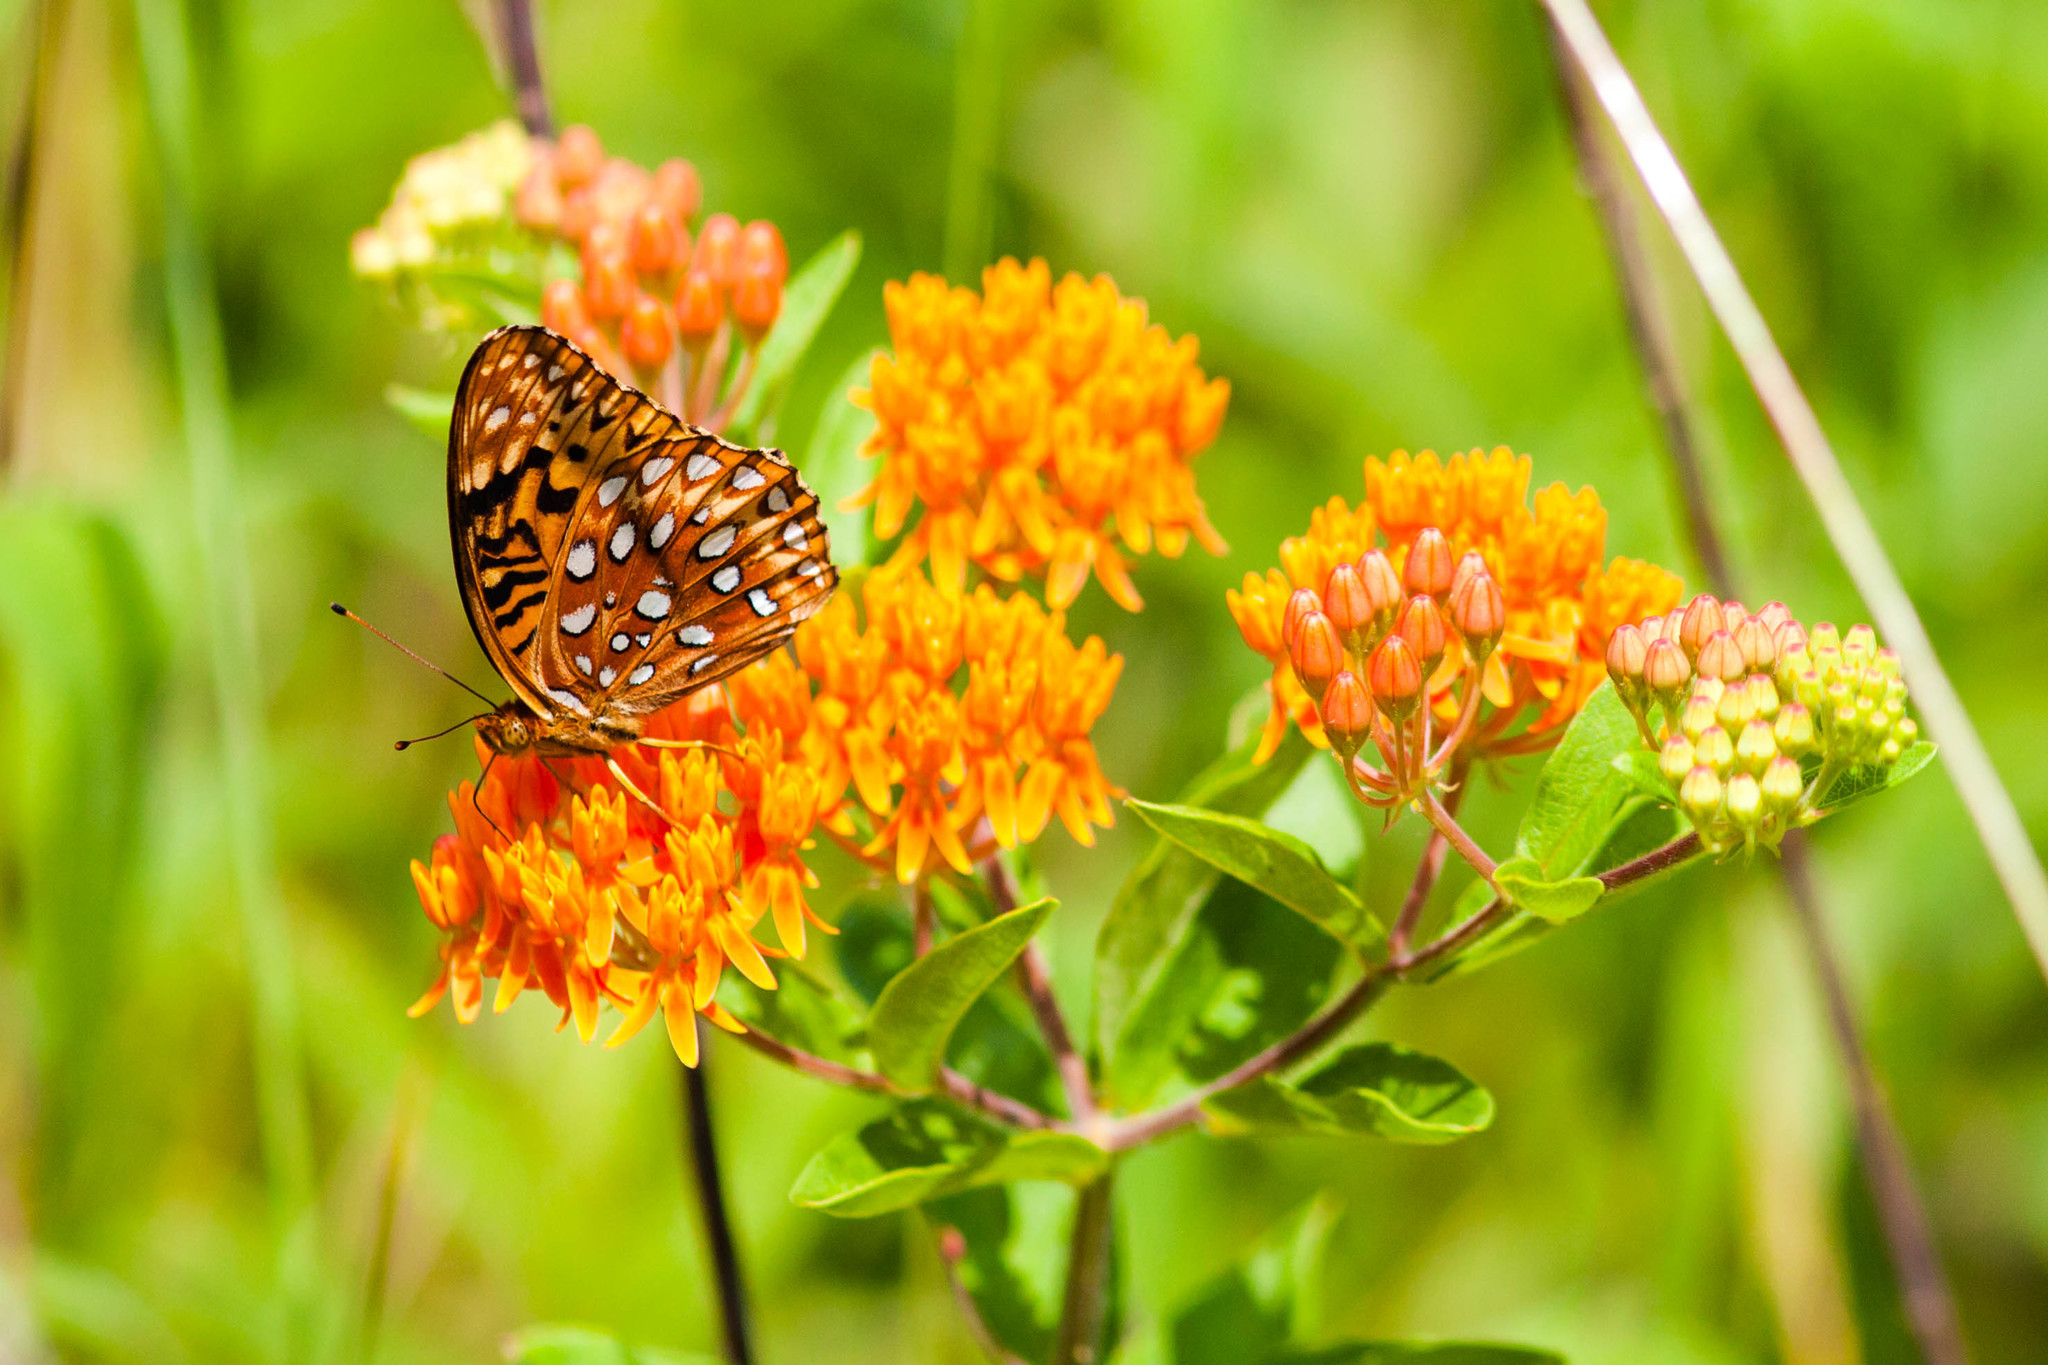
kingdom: Animalia
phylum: Arthropoda
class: Insecta
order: Lepidoptera
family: Nymphalidae
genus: Speyeria
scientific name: Speyeria aphrodite
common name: Aphrodite friitllary
